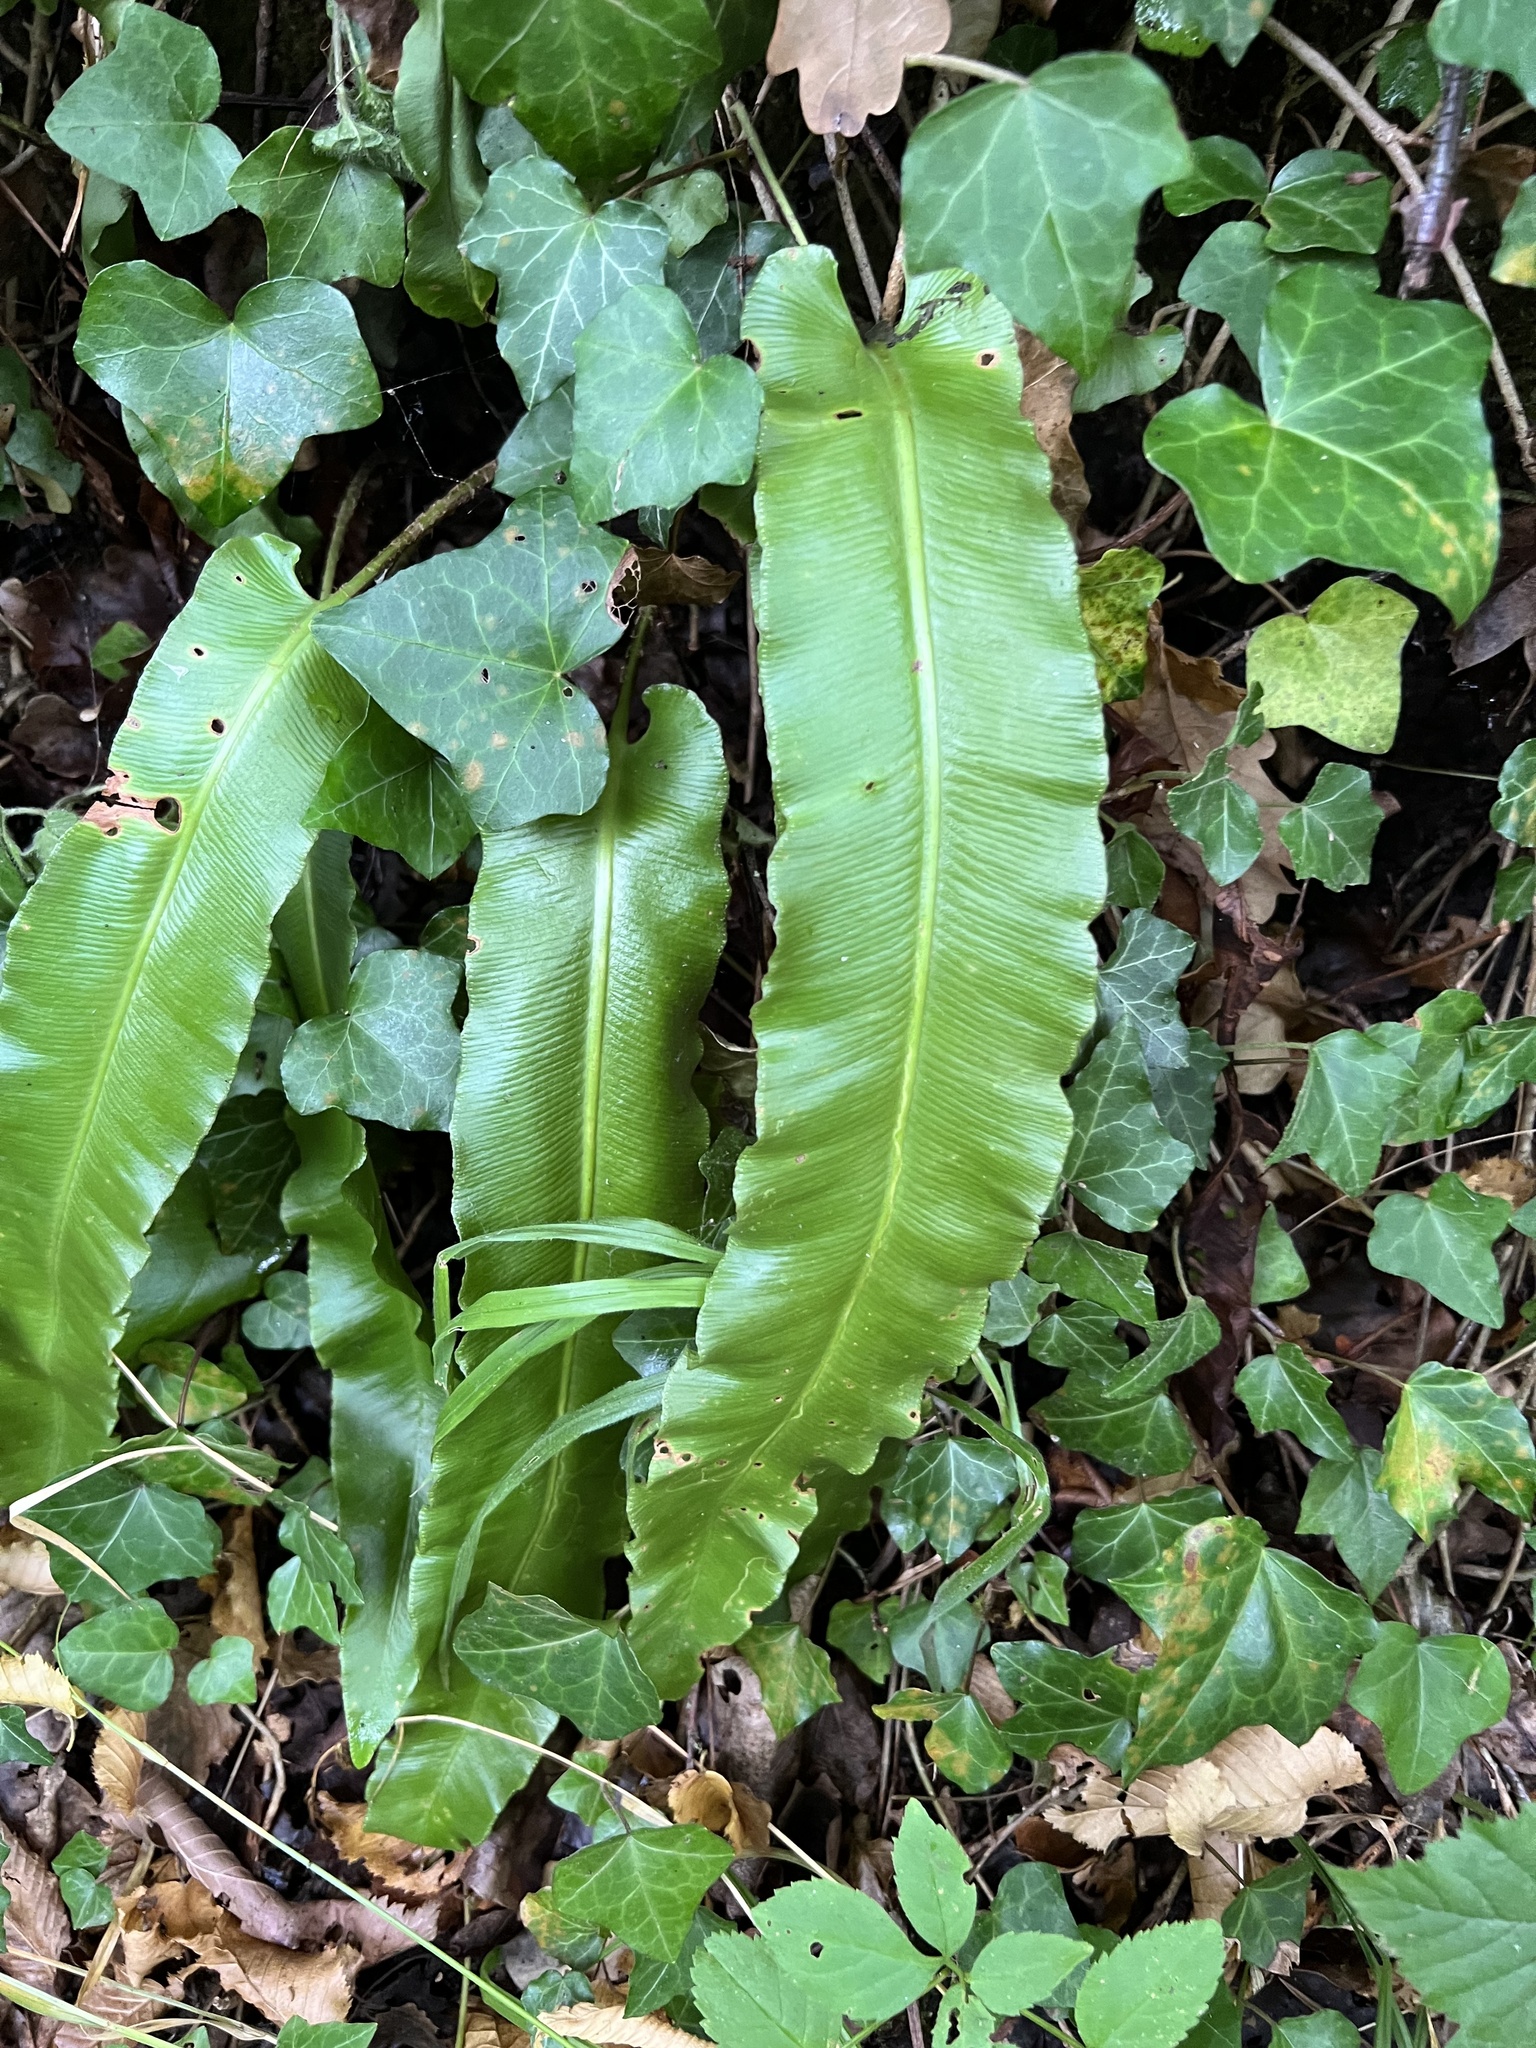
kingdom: Plantae
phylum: Tracheophyta
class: Polypodiopsida
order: Polypodiales
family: Aspleniaceae
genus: Asplenium
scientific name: Asplenium scolopendrium
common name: Hart's-tongue fern
